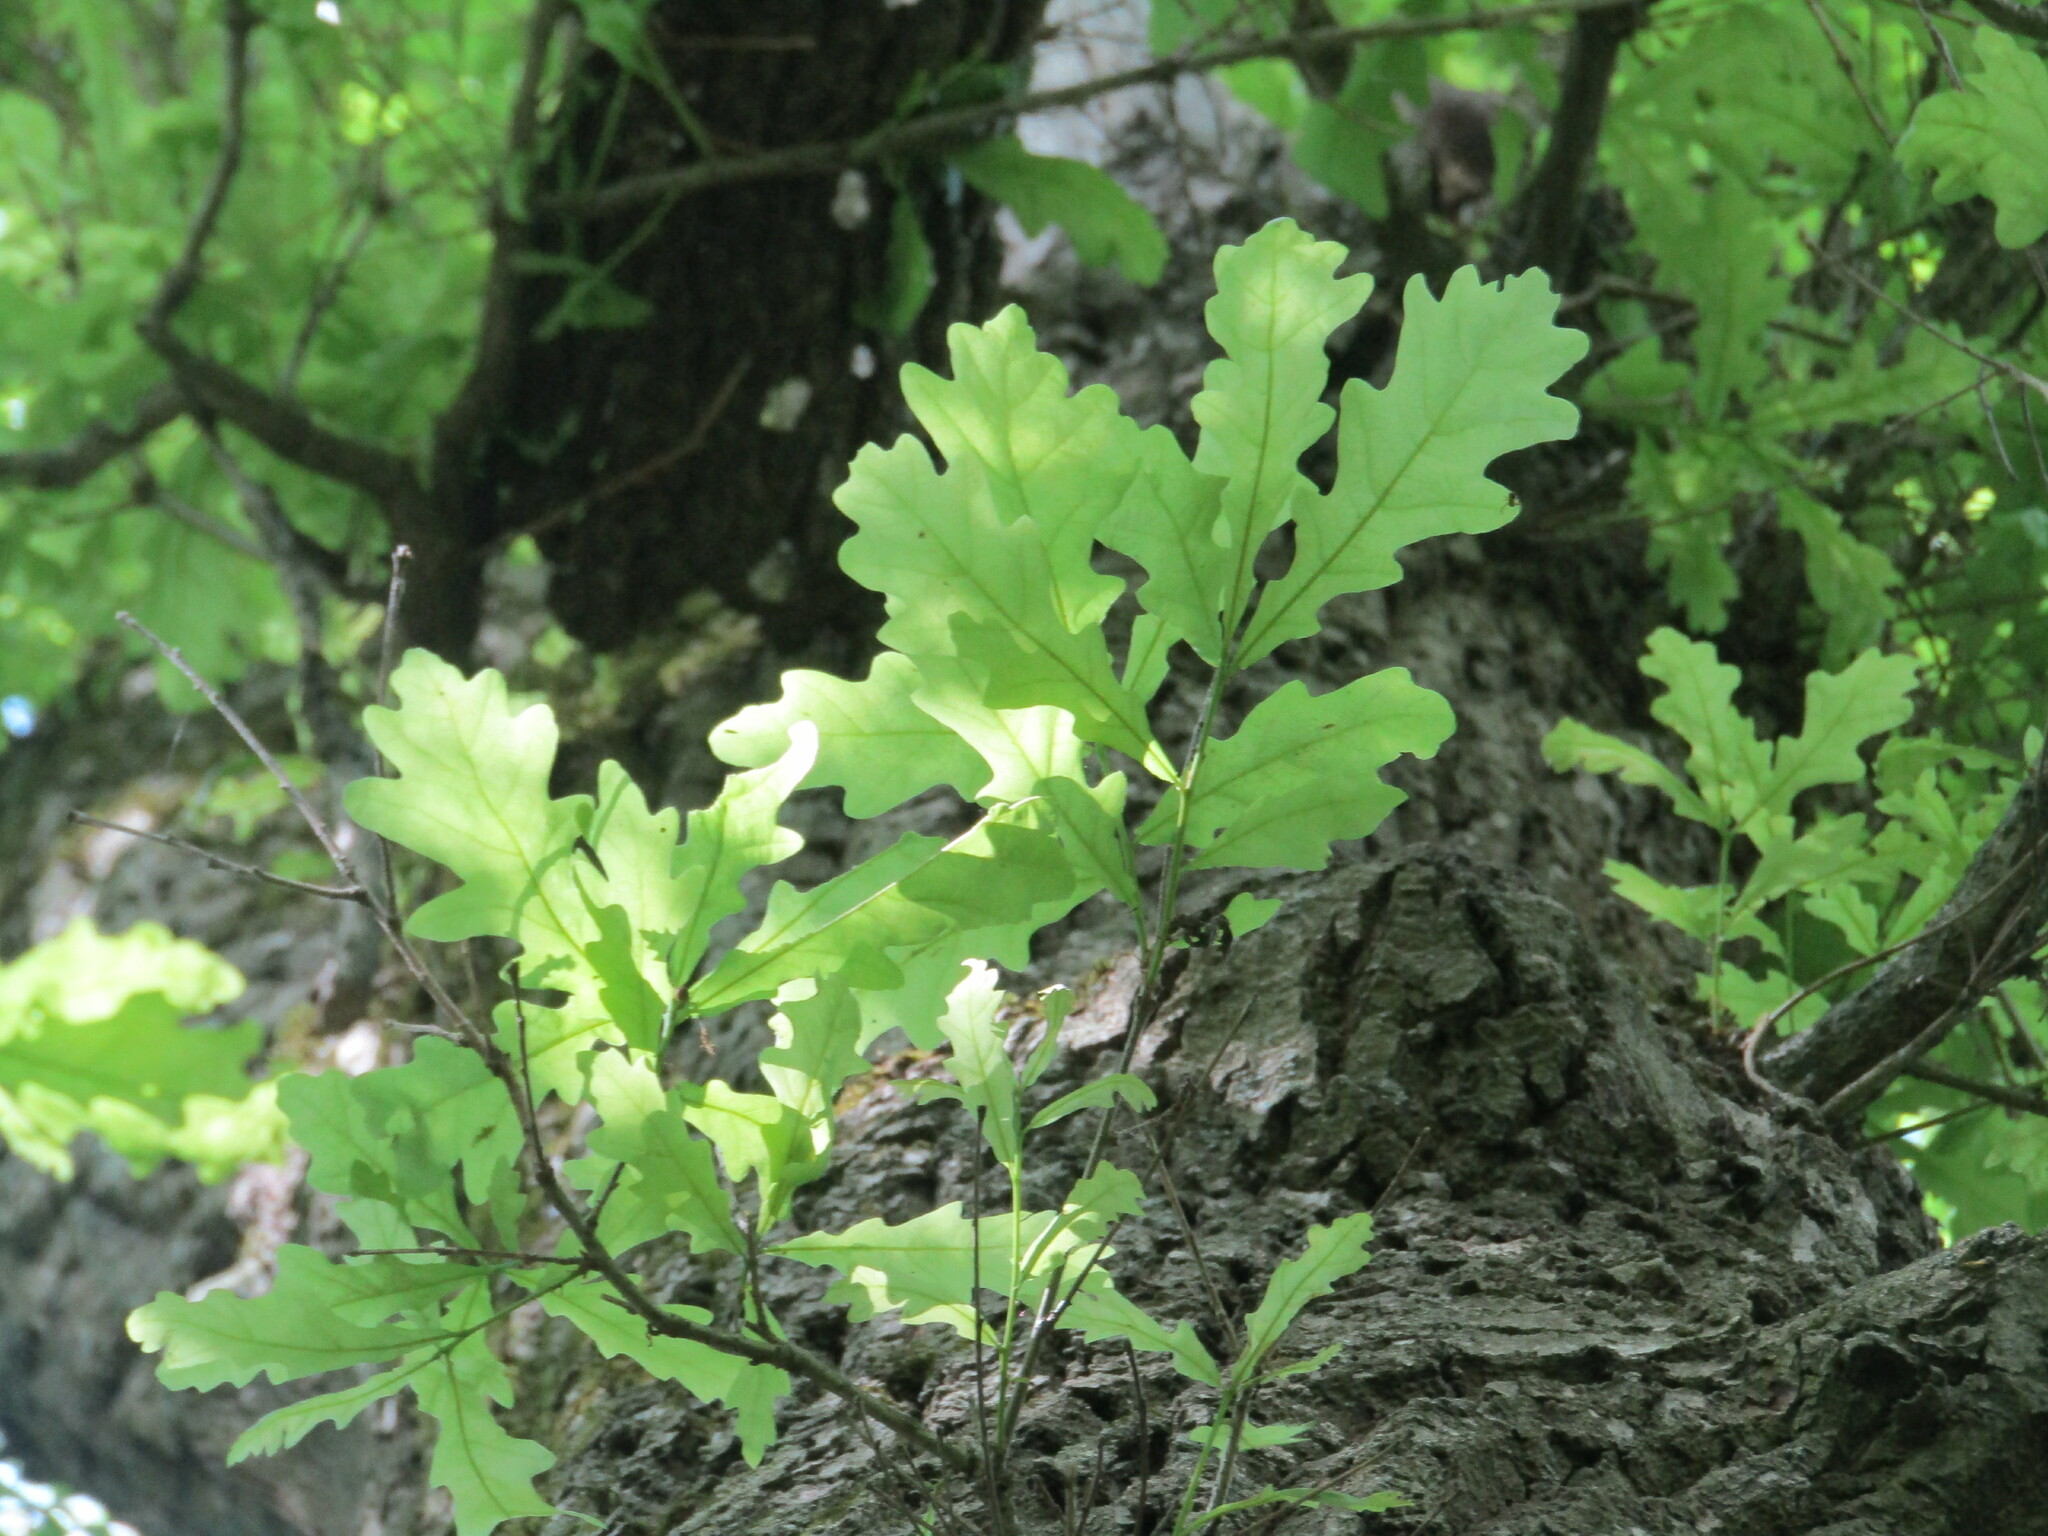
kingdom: Plantae
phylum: Tracheophyta
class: Magnoliopsida
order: Fagales
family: Fagaceae
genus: Quercus
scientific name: Quercus robur
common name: Pedunculate oak
